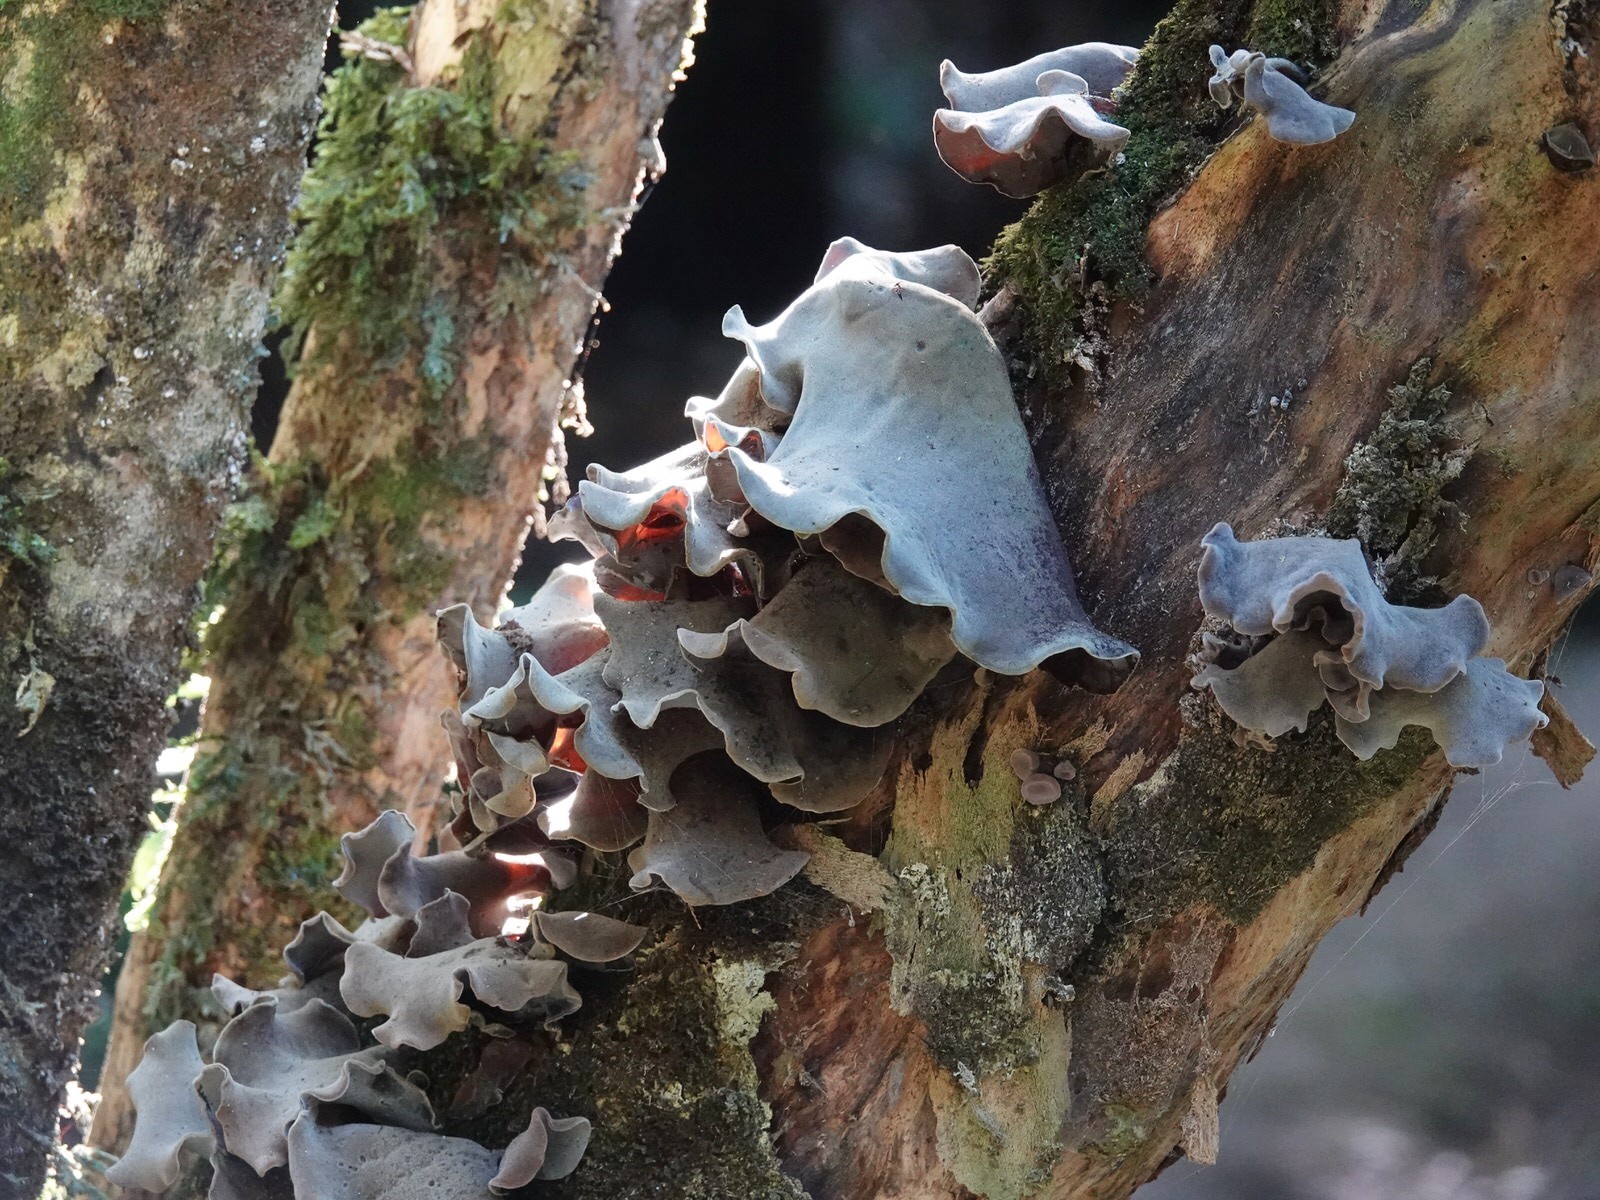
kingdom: Fungi
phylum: Basidiomycota
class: Agaricomycetes
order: Auriculariales
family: Auriculariaceae
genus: Auricularia
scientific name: Auricularia cornea
